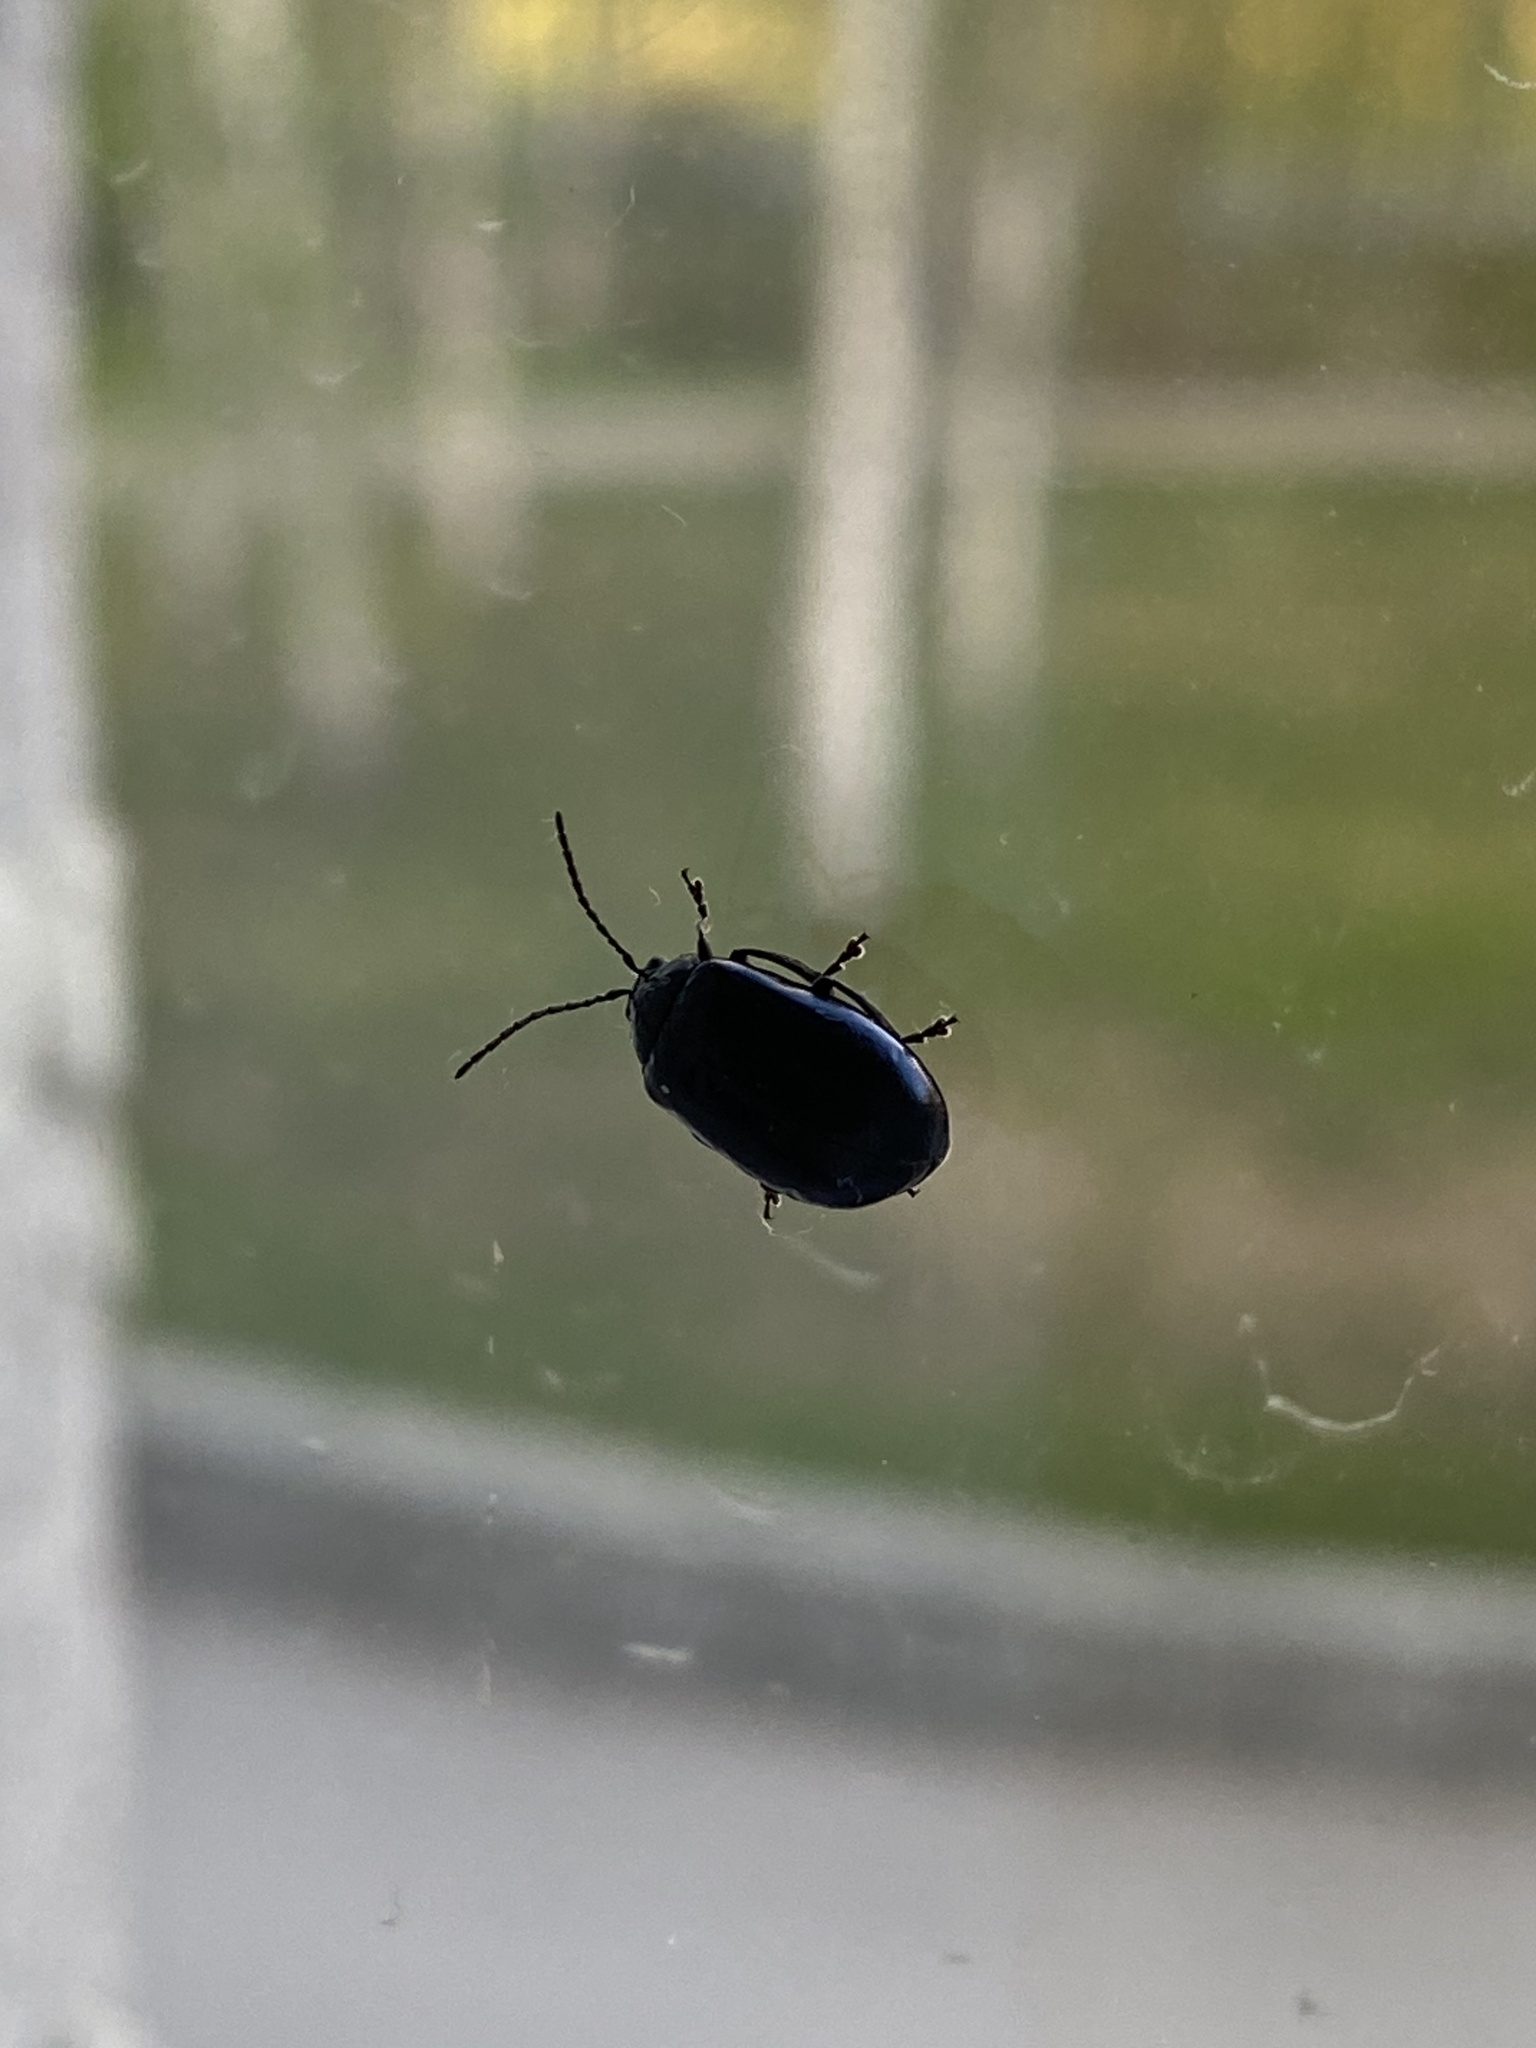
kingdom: Animalia
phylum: Arthropoda
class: Insecta
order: Coleoptera
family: Chrysomelidae
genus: Agelastica
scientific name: Agelastica alni
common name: Alder leaf beetle
